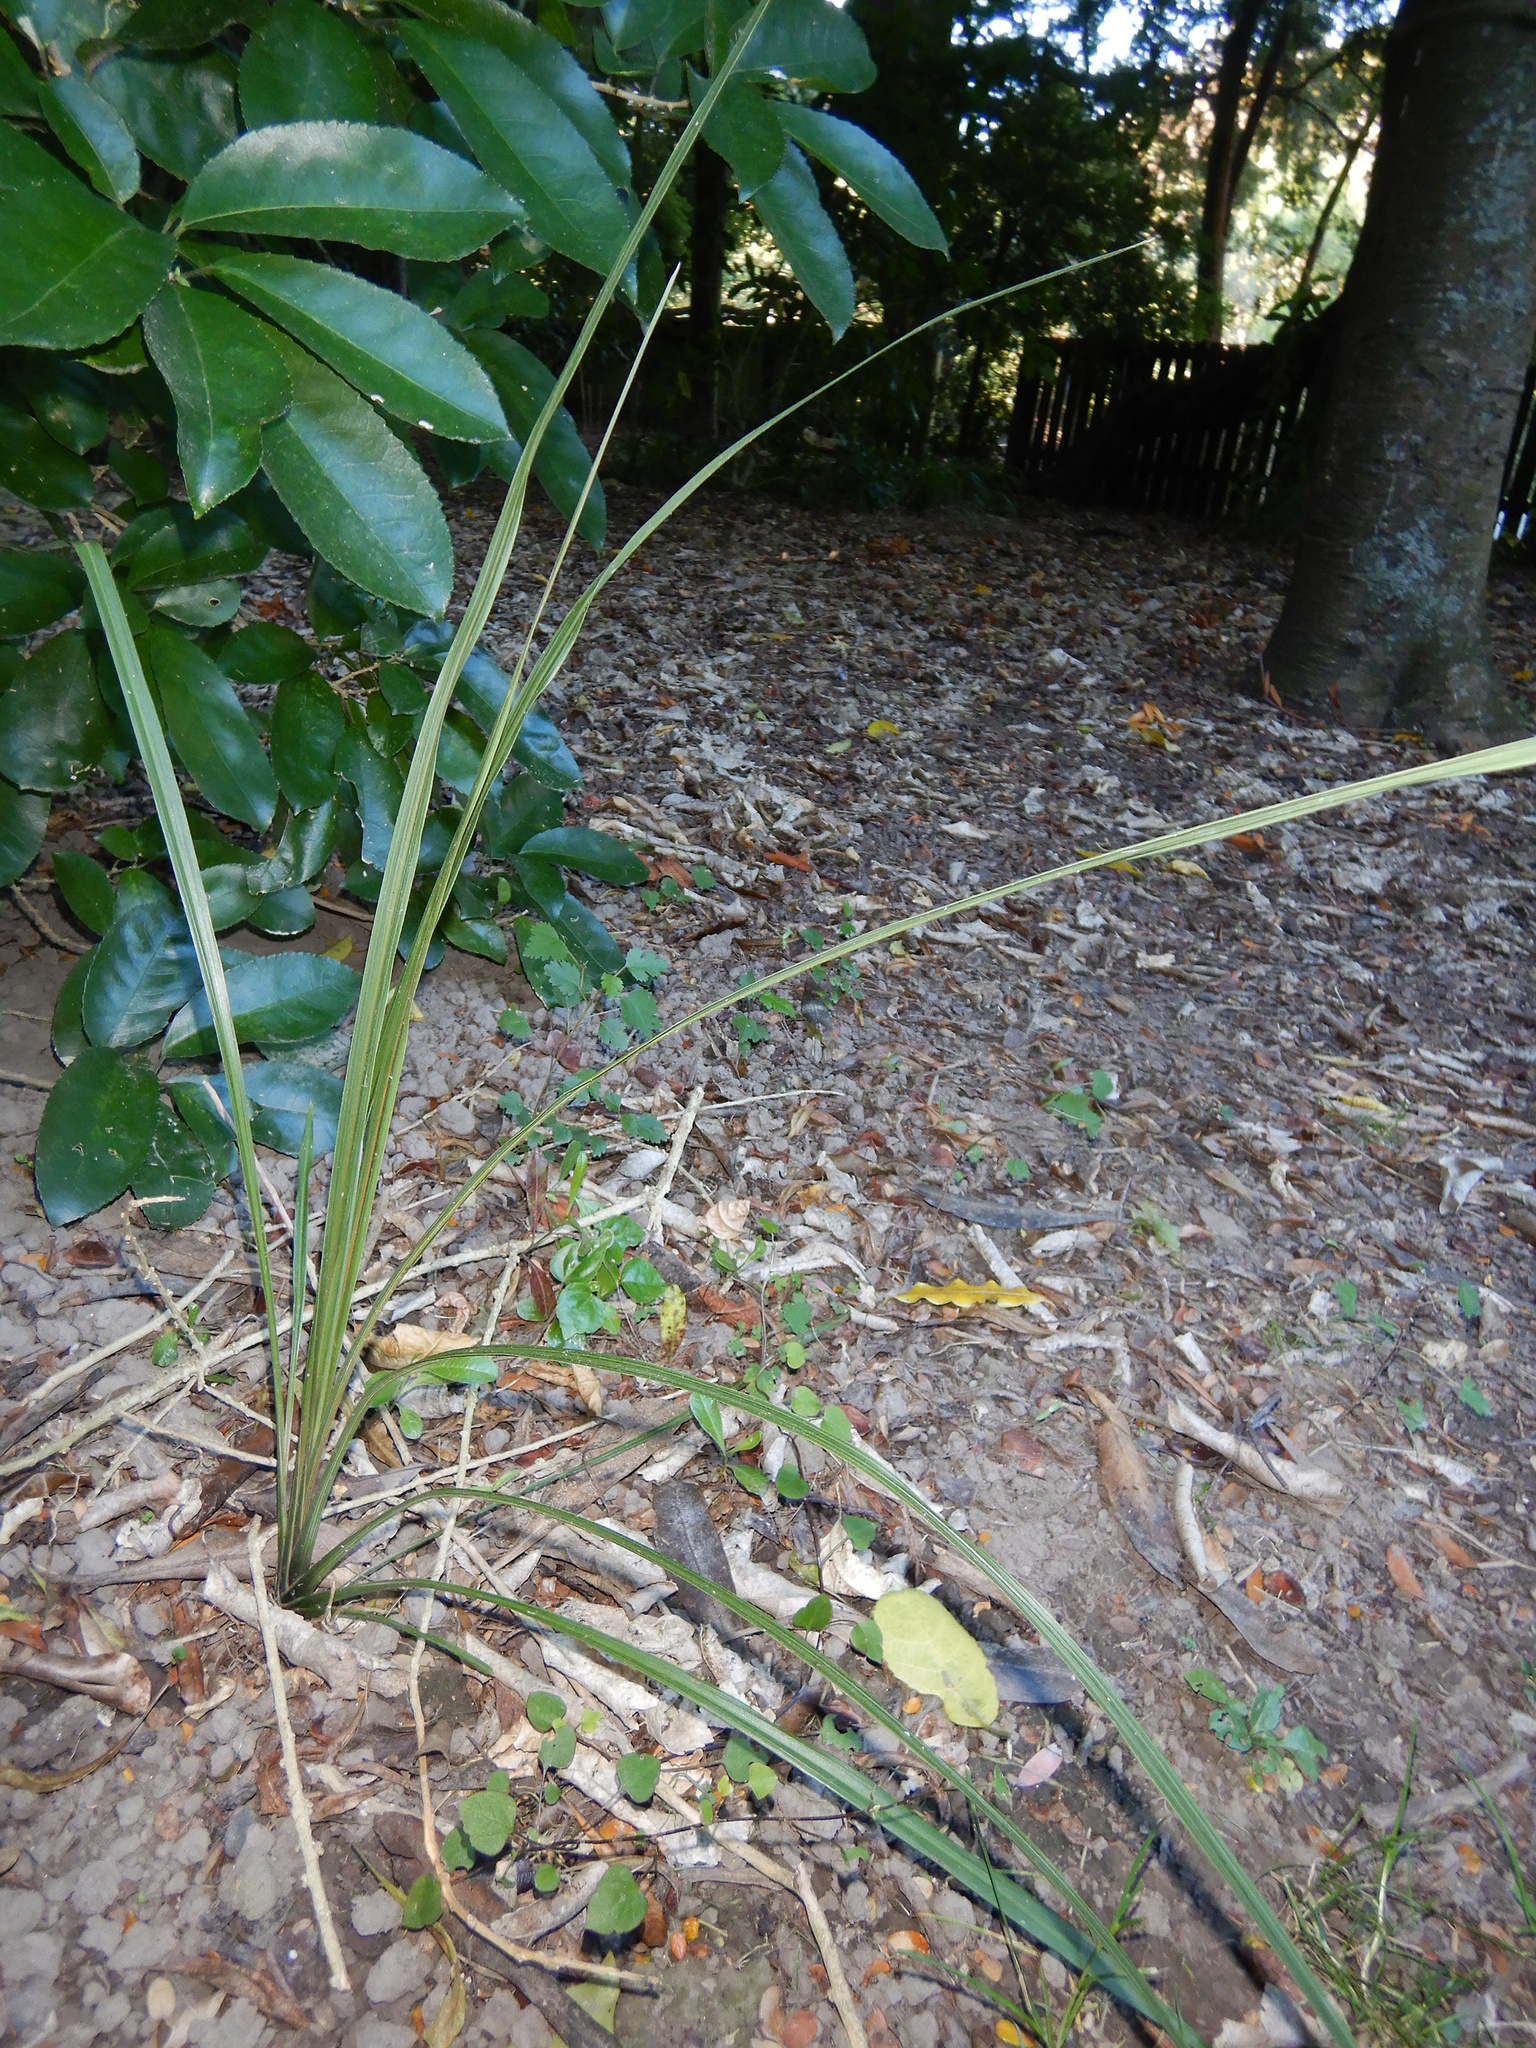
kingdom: Plantae
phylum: Tracheophyta
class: Liliopsida
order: Asparagales
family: Asparagaceae
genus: Cordyline
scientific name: Cordyline australis
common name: Cabbage-palm
